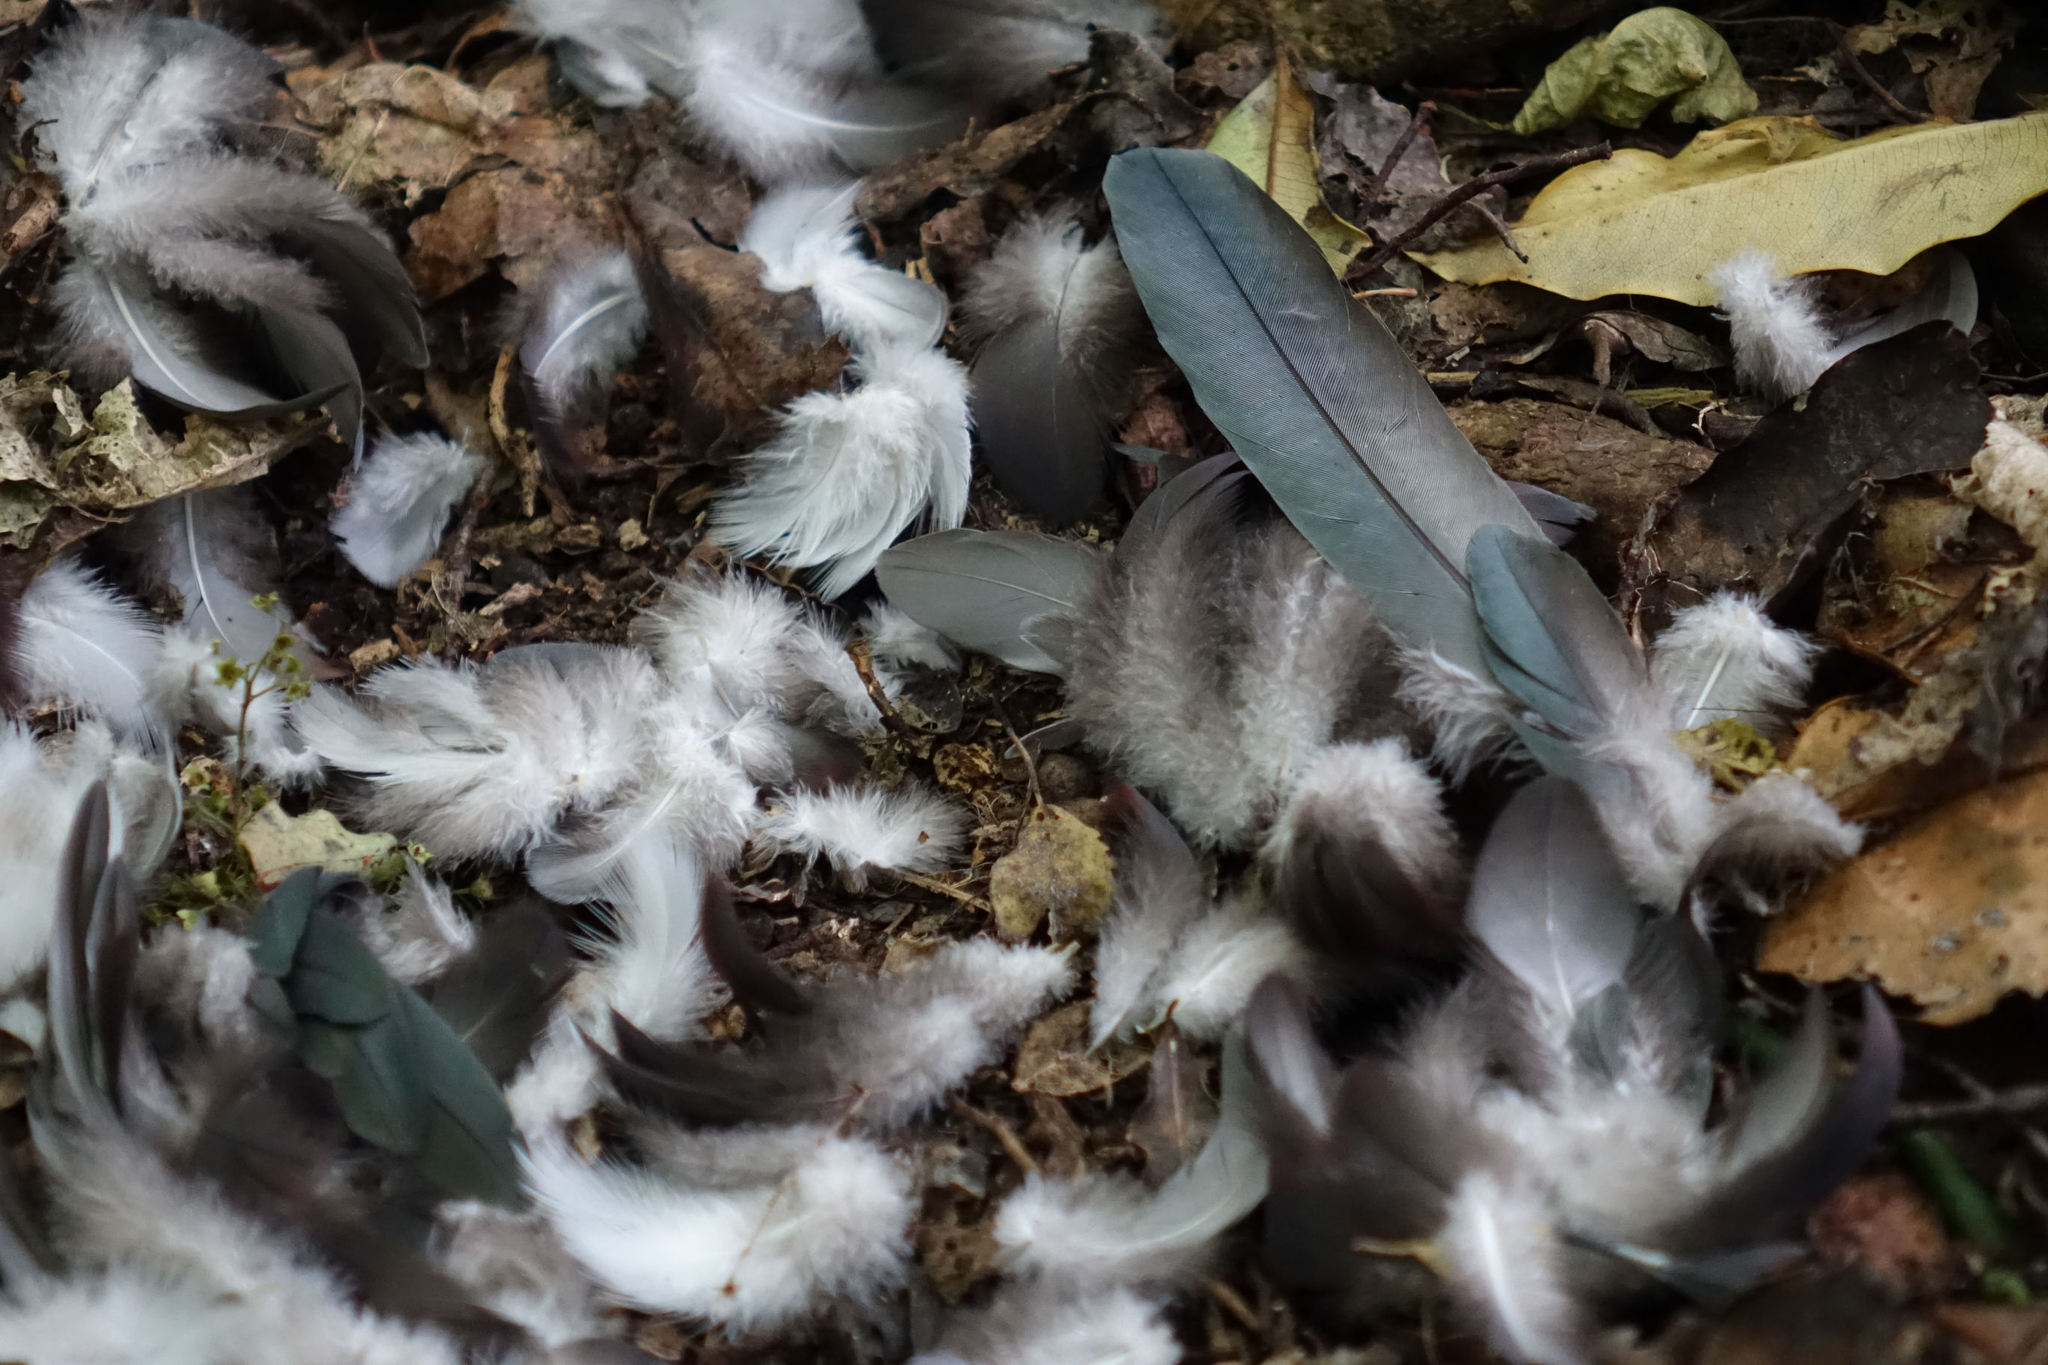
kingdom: Animalia
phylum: Chordata
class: Aves
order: Columbiformes
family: Columbidae
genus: Hemiphaga
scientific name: Hemiphaga novaeseelandiae
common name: New zealand pigeon
